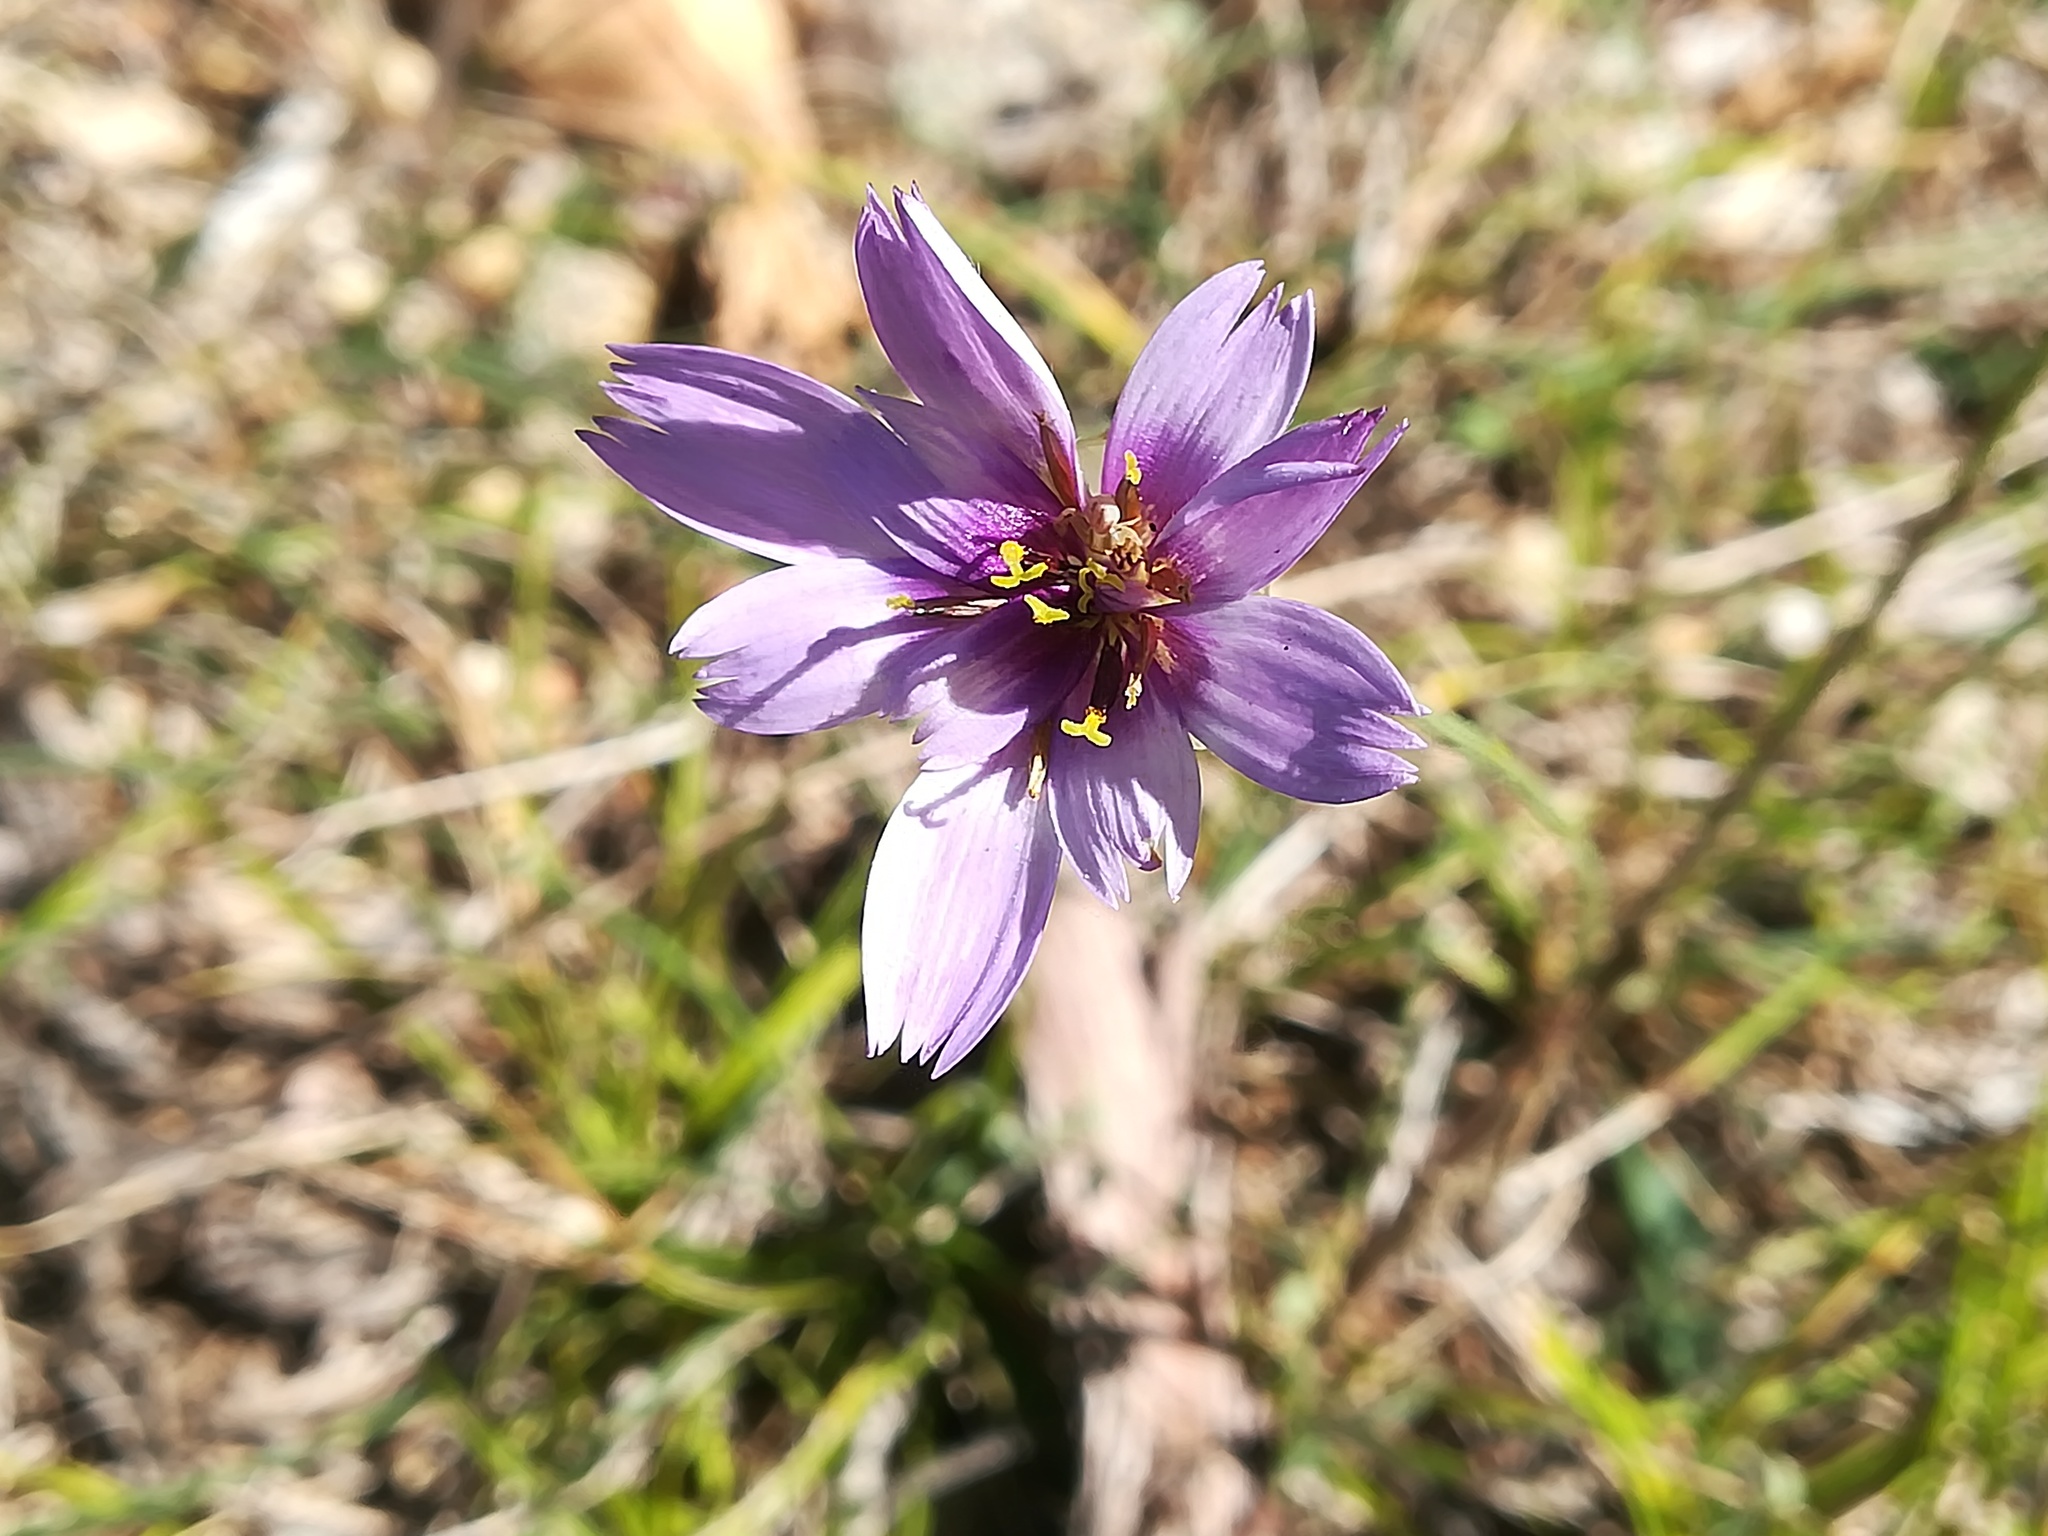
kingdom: Plantae
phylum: Tracheophyta
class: Magnoliopsida
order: Asterales
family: Asteraceae
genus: Catananche
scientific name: Catananche caerulea
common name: Blue cupidone
